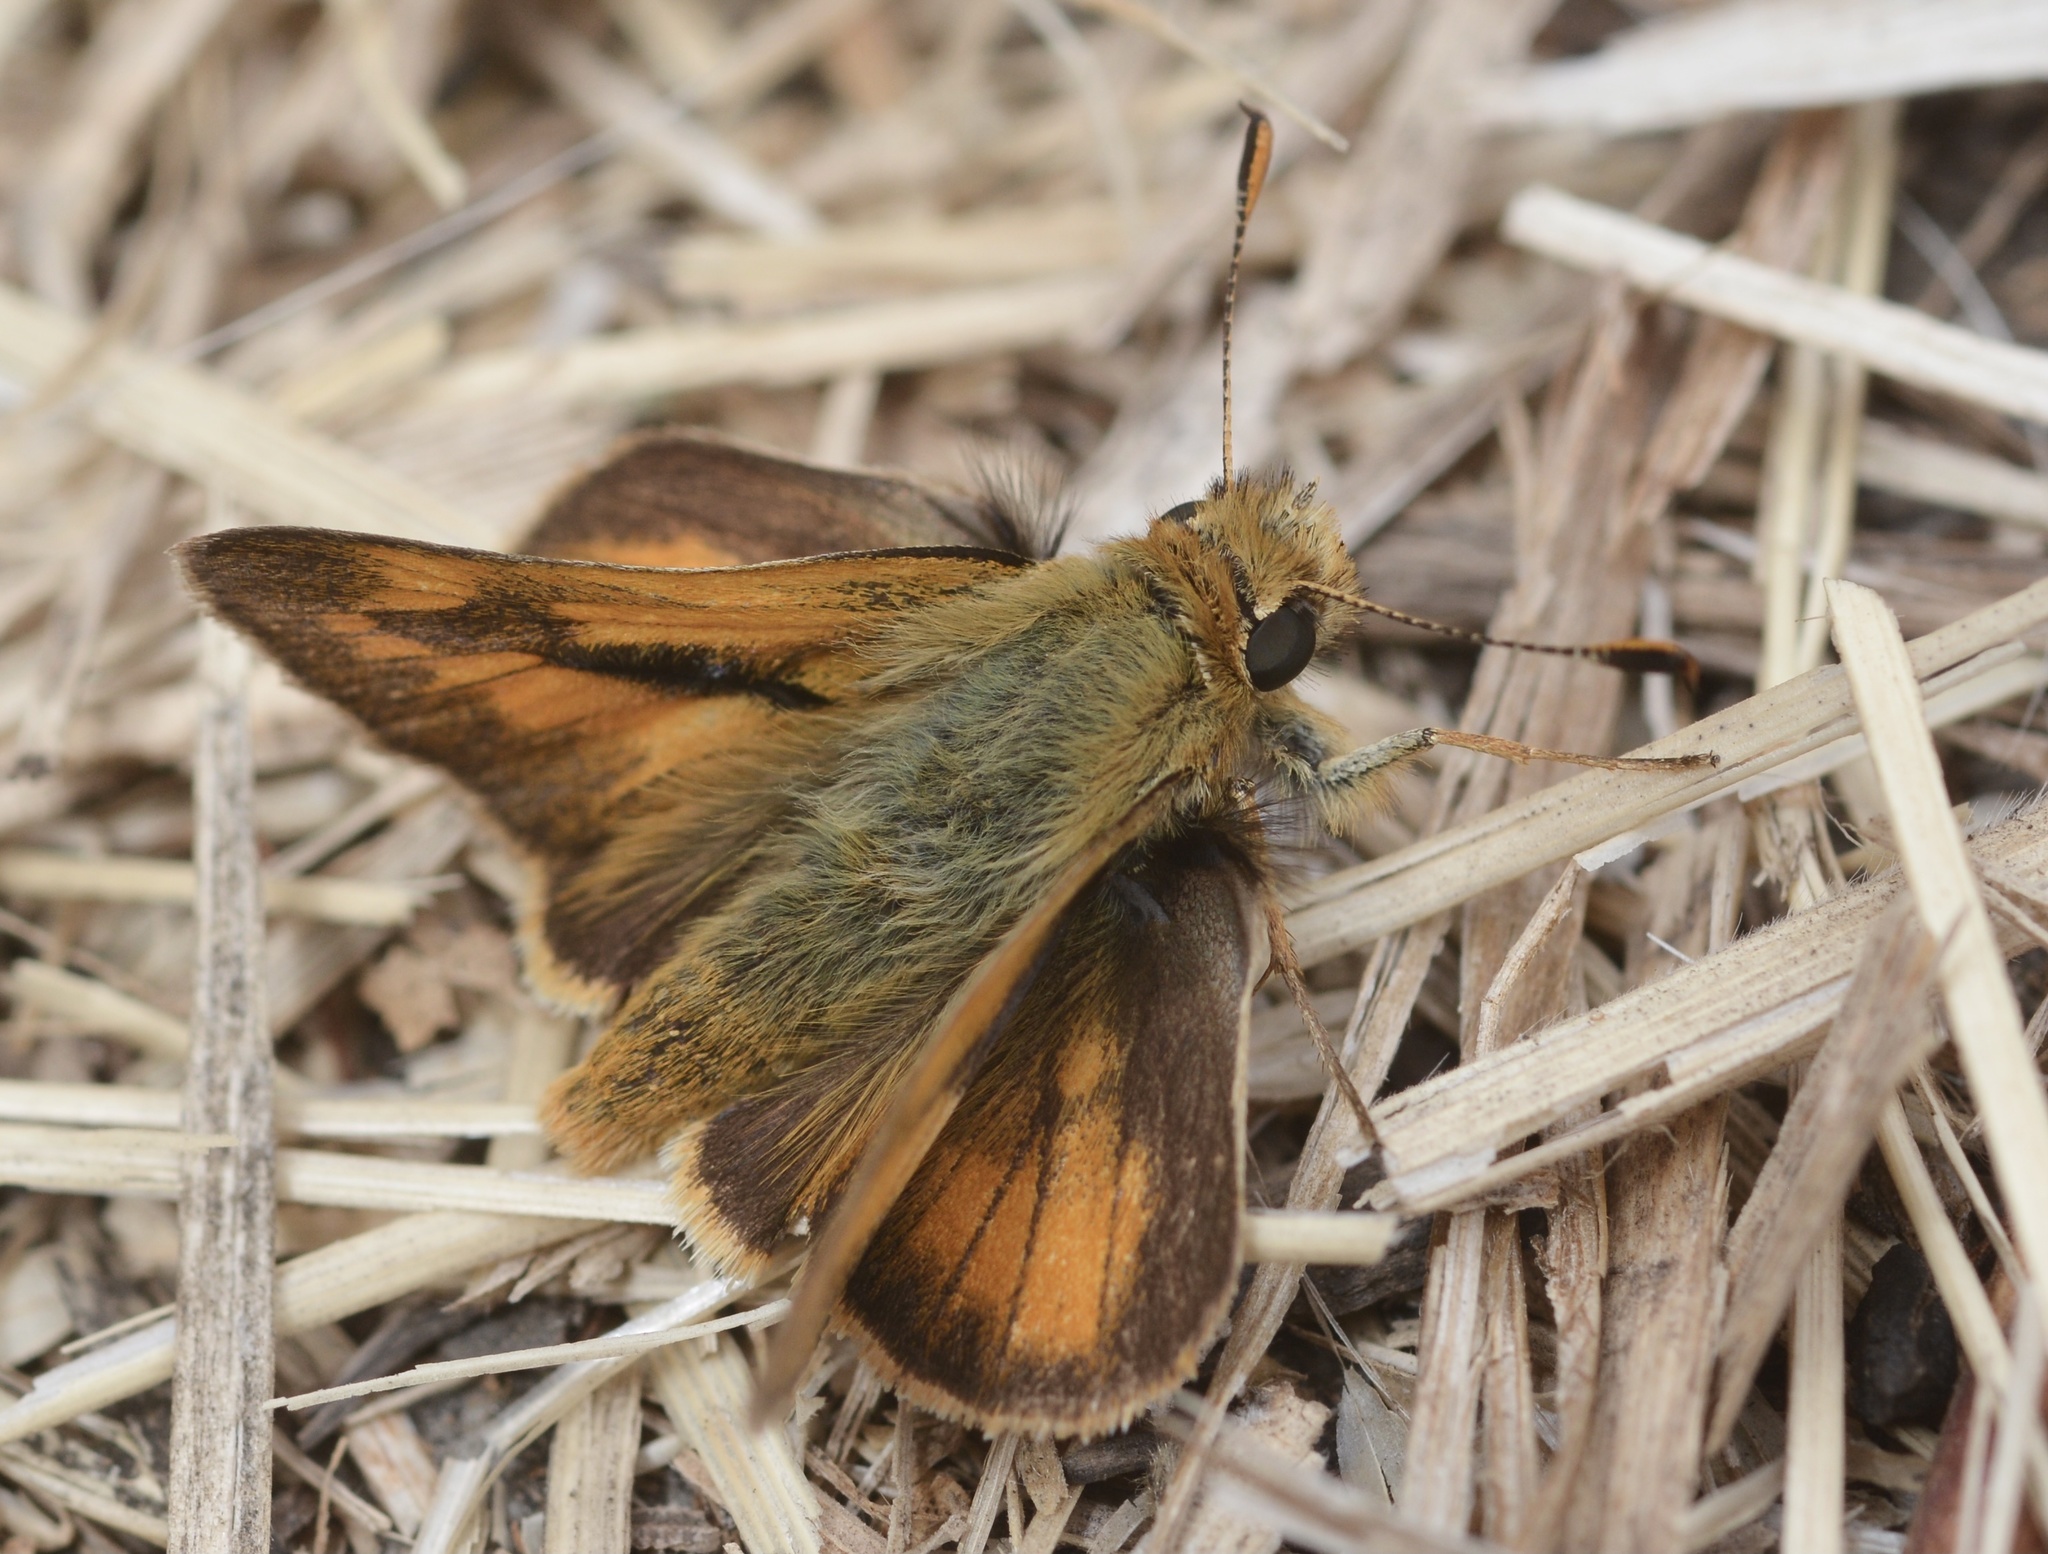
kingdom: Animalia
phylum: Arthropoda
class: Insecta
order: Lepidoptera
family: Hesperiidae
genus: Ochlodes
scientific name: Ochlodes sylvanoides
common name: Woodland skipper
